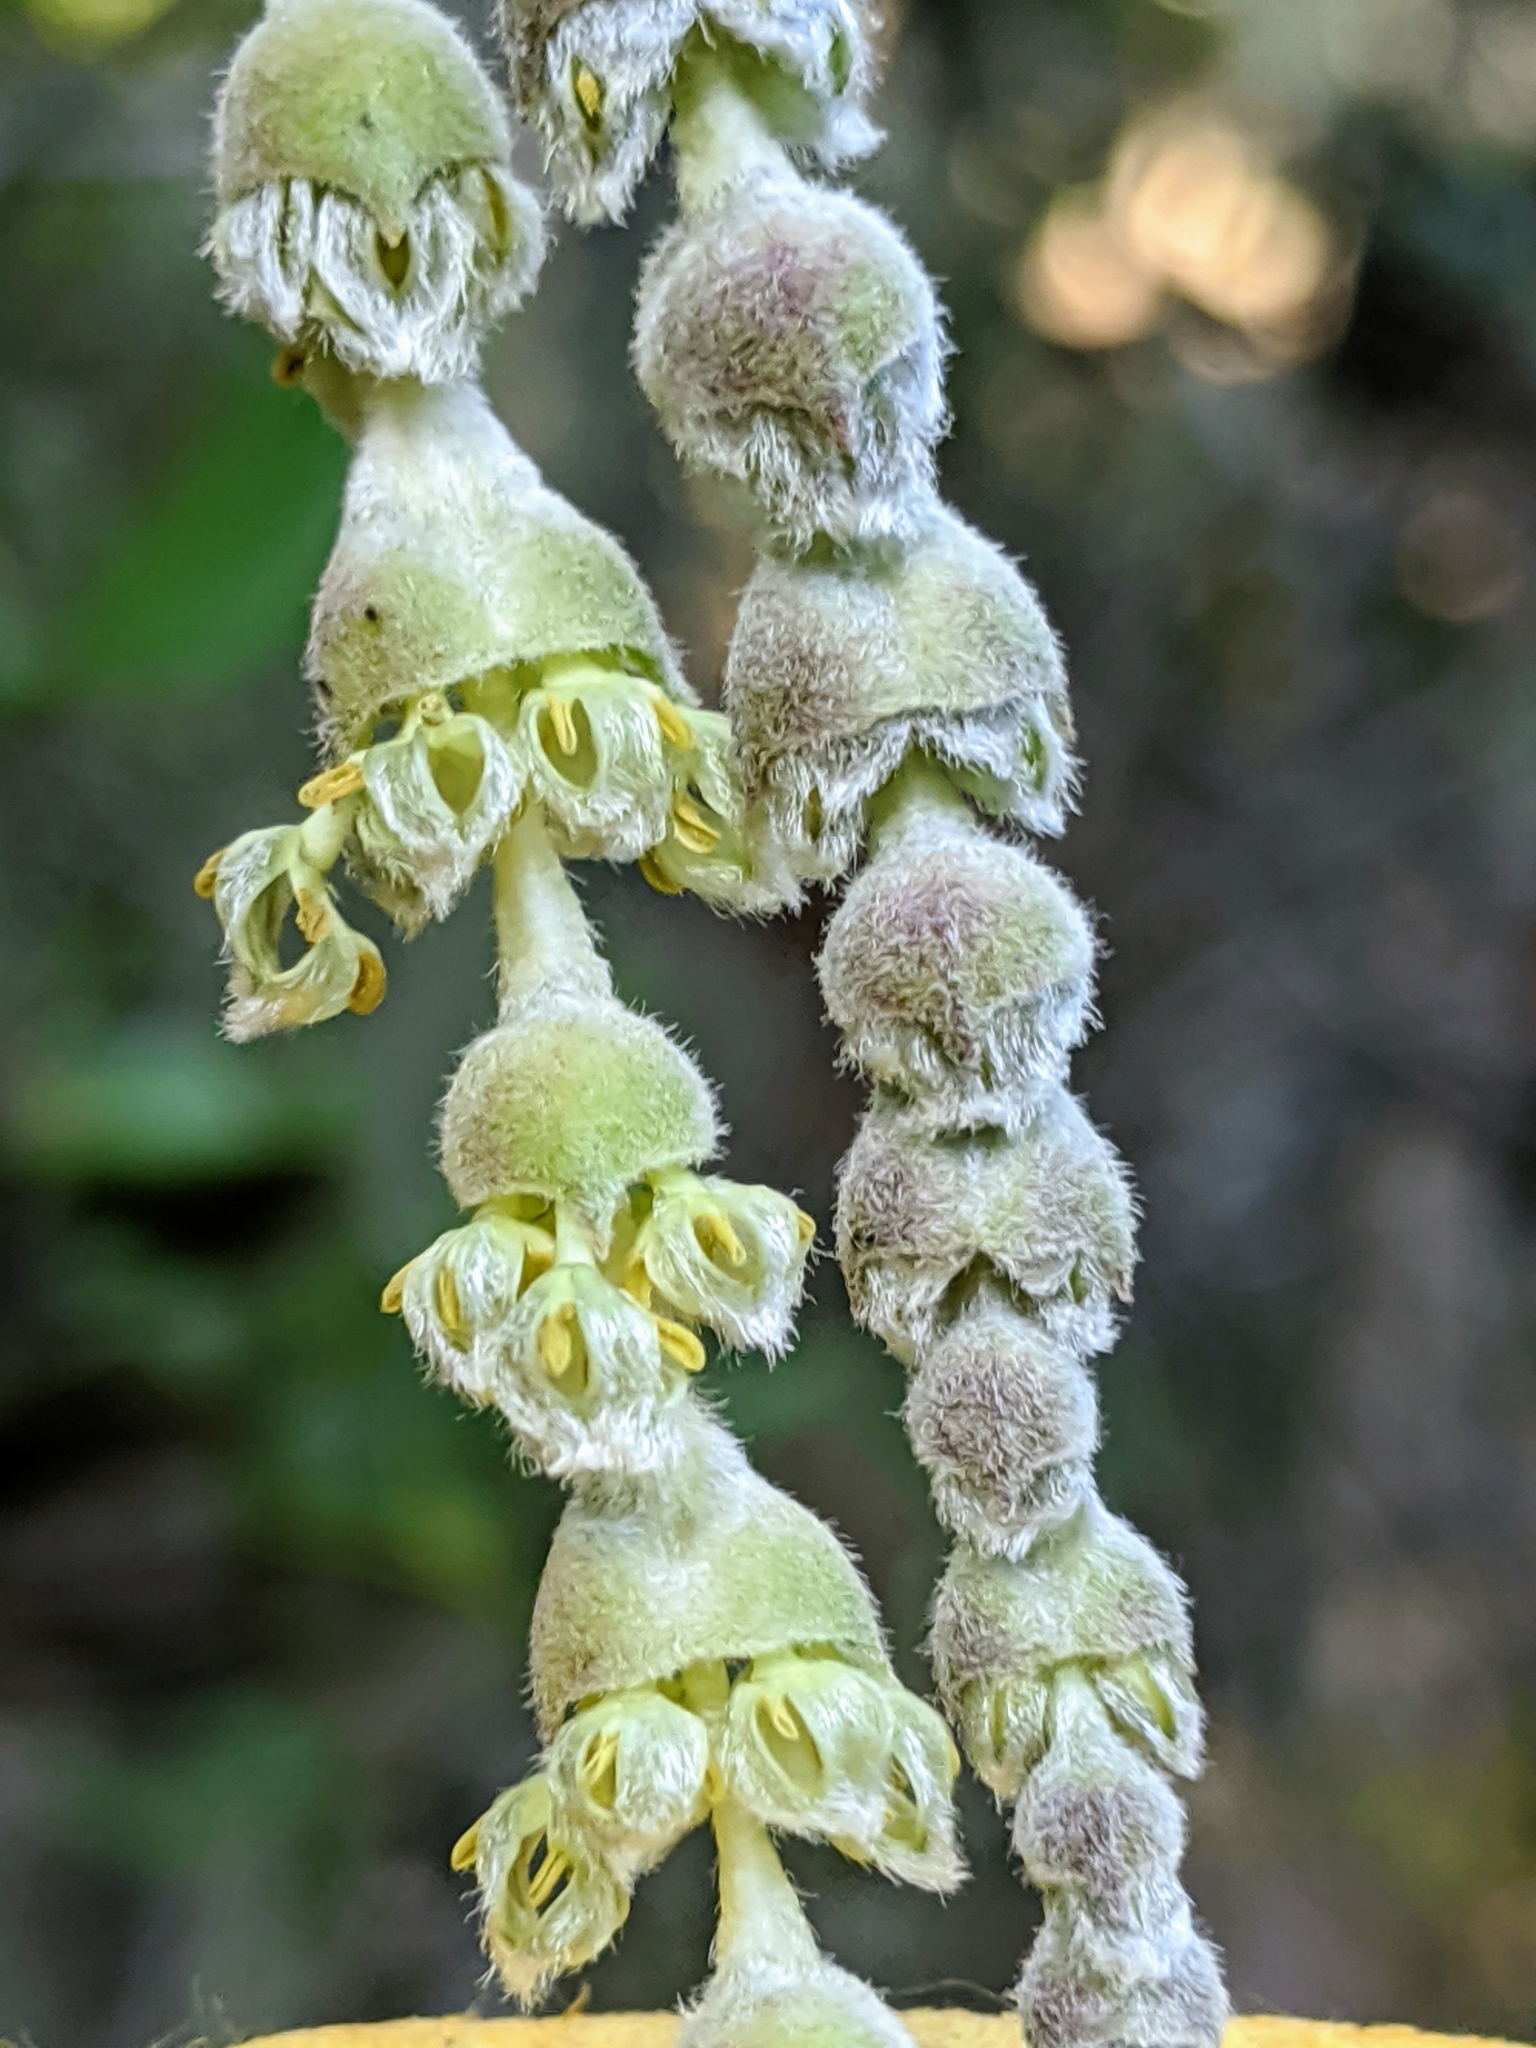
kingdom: Plantae
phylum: Tracheophyta
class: Magnoliopsida
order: Garryales
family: Garryaceae
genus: Garrya
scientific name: Garrya elliptica
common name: Silk-tassel
